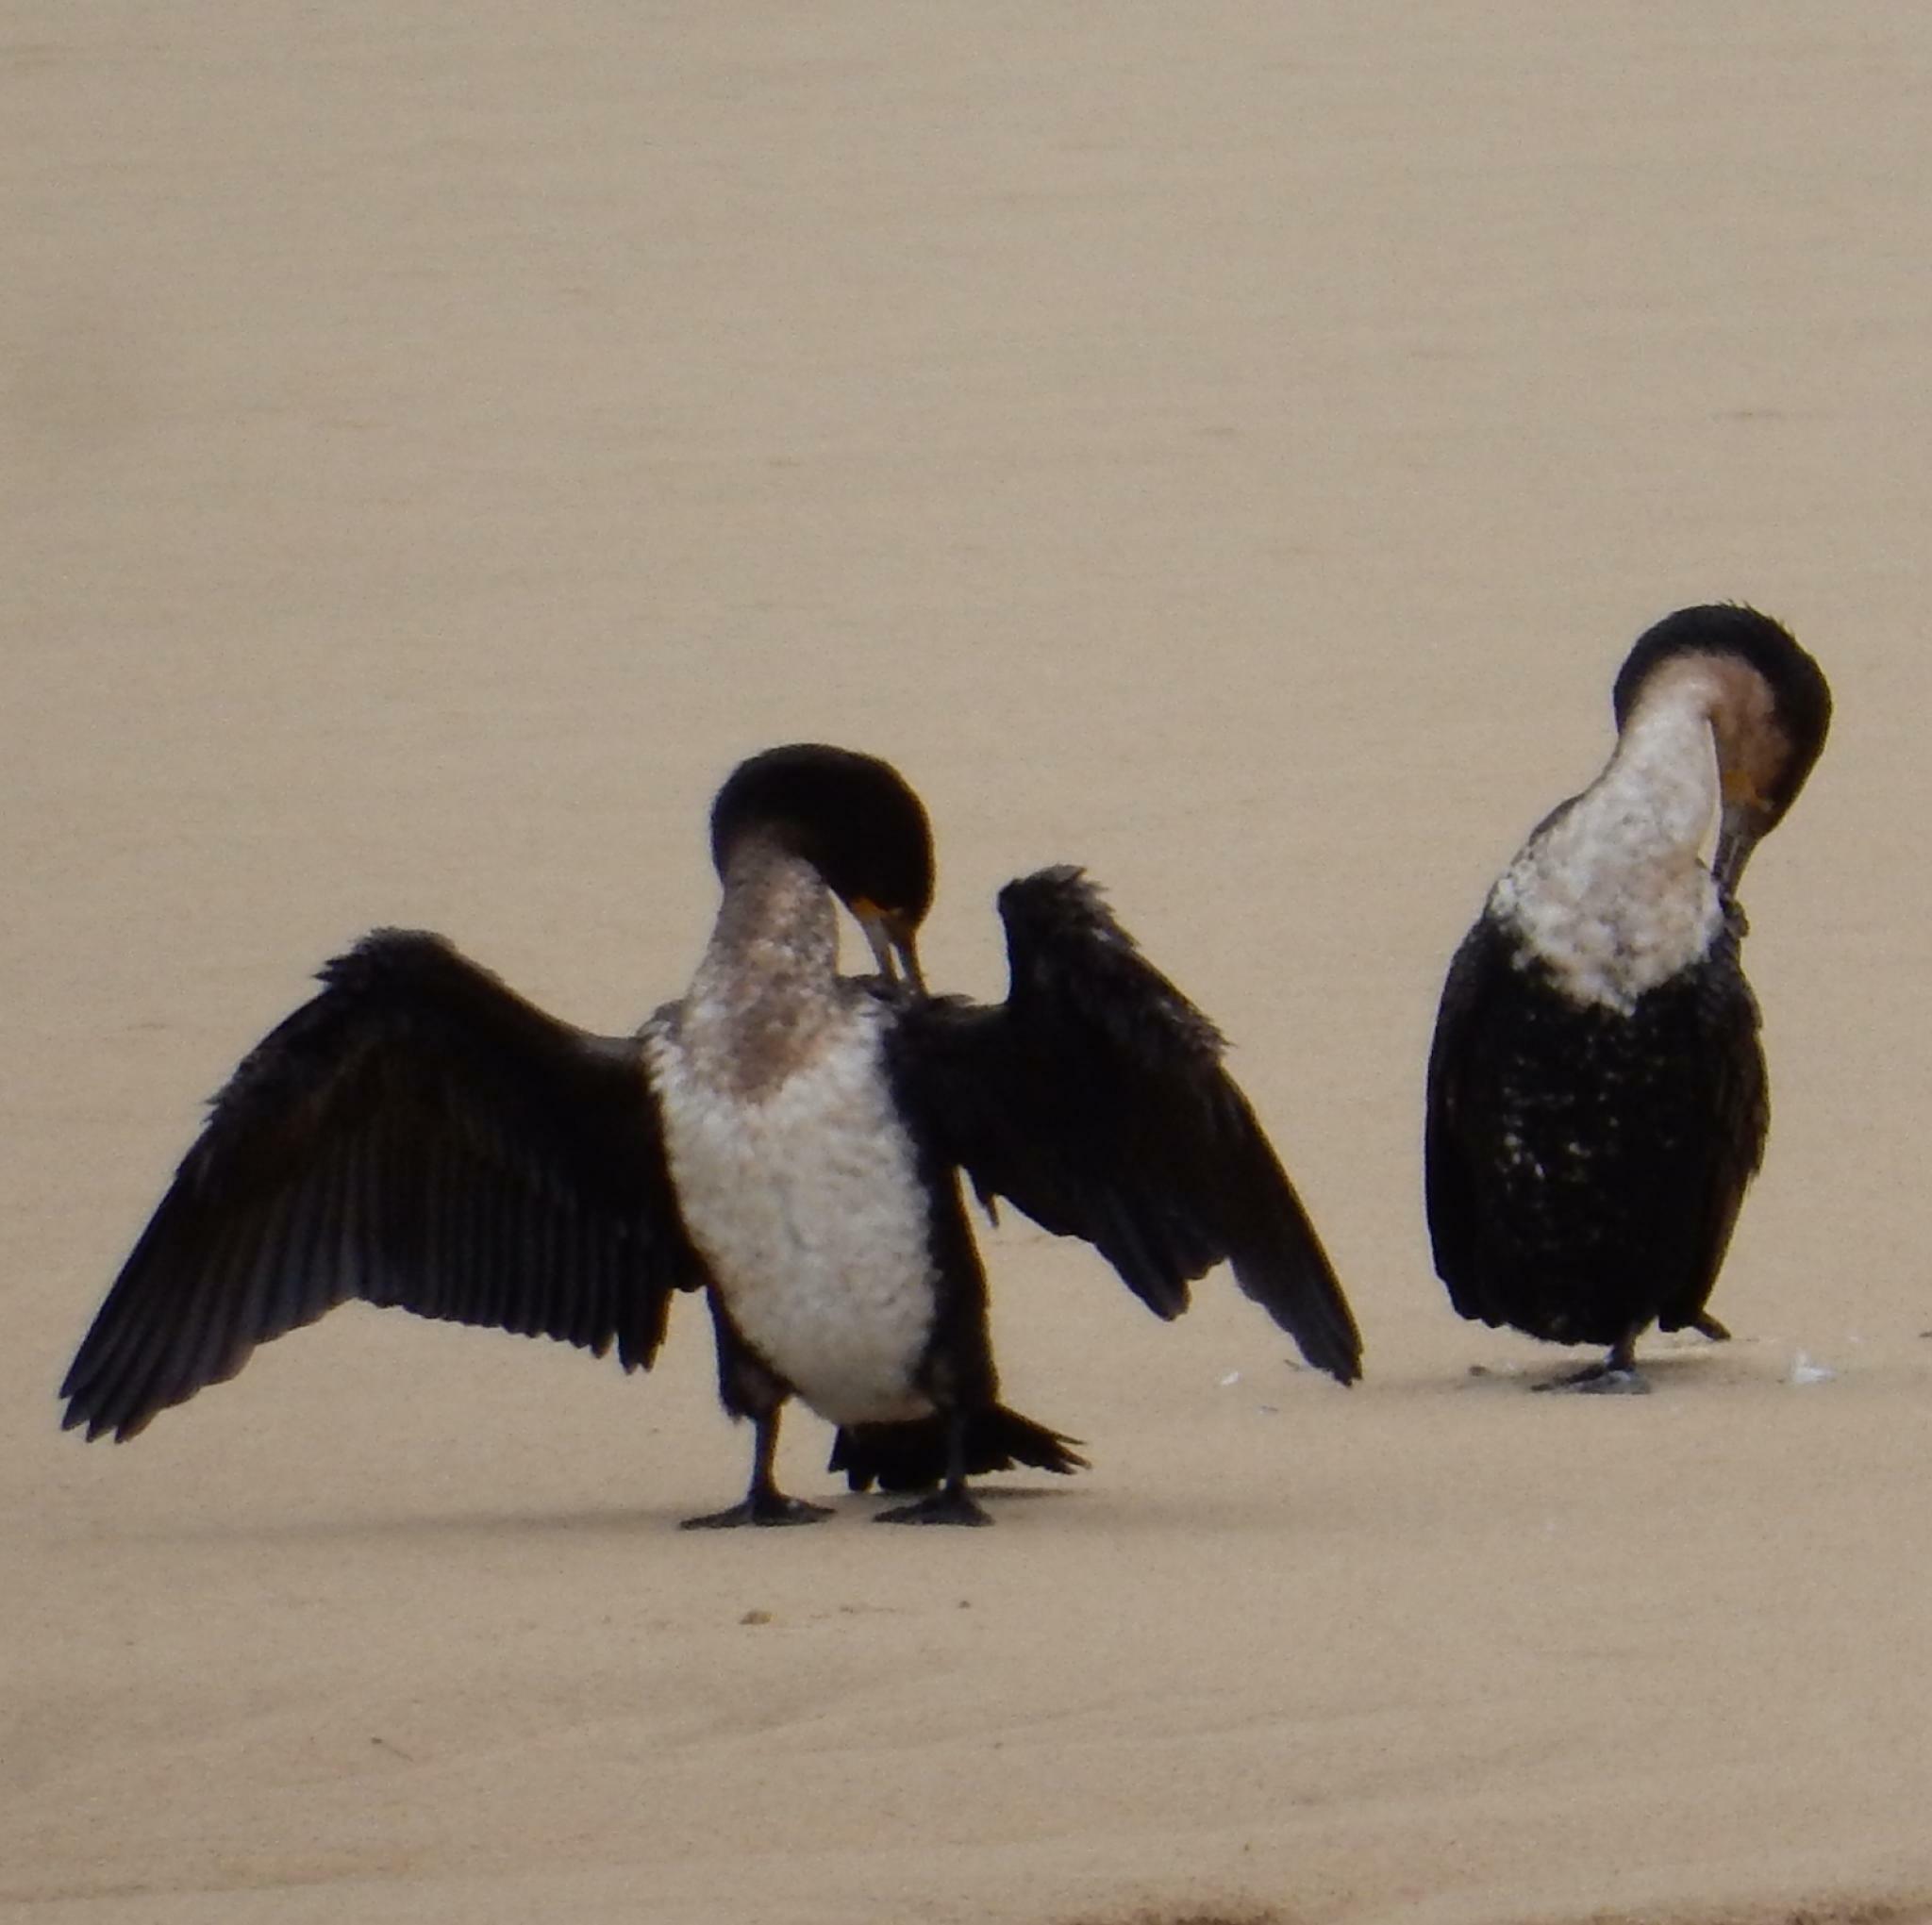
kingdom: Animalia
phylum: Chordata
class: Aves
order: Suliformes
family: Phalacrocoracidae
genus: Phalacrocorax
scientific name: Phalacrocorax carbo
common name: Great cormorant
